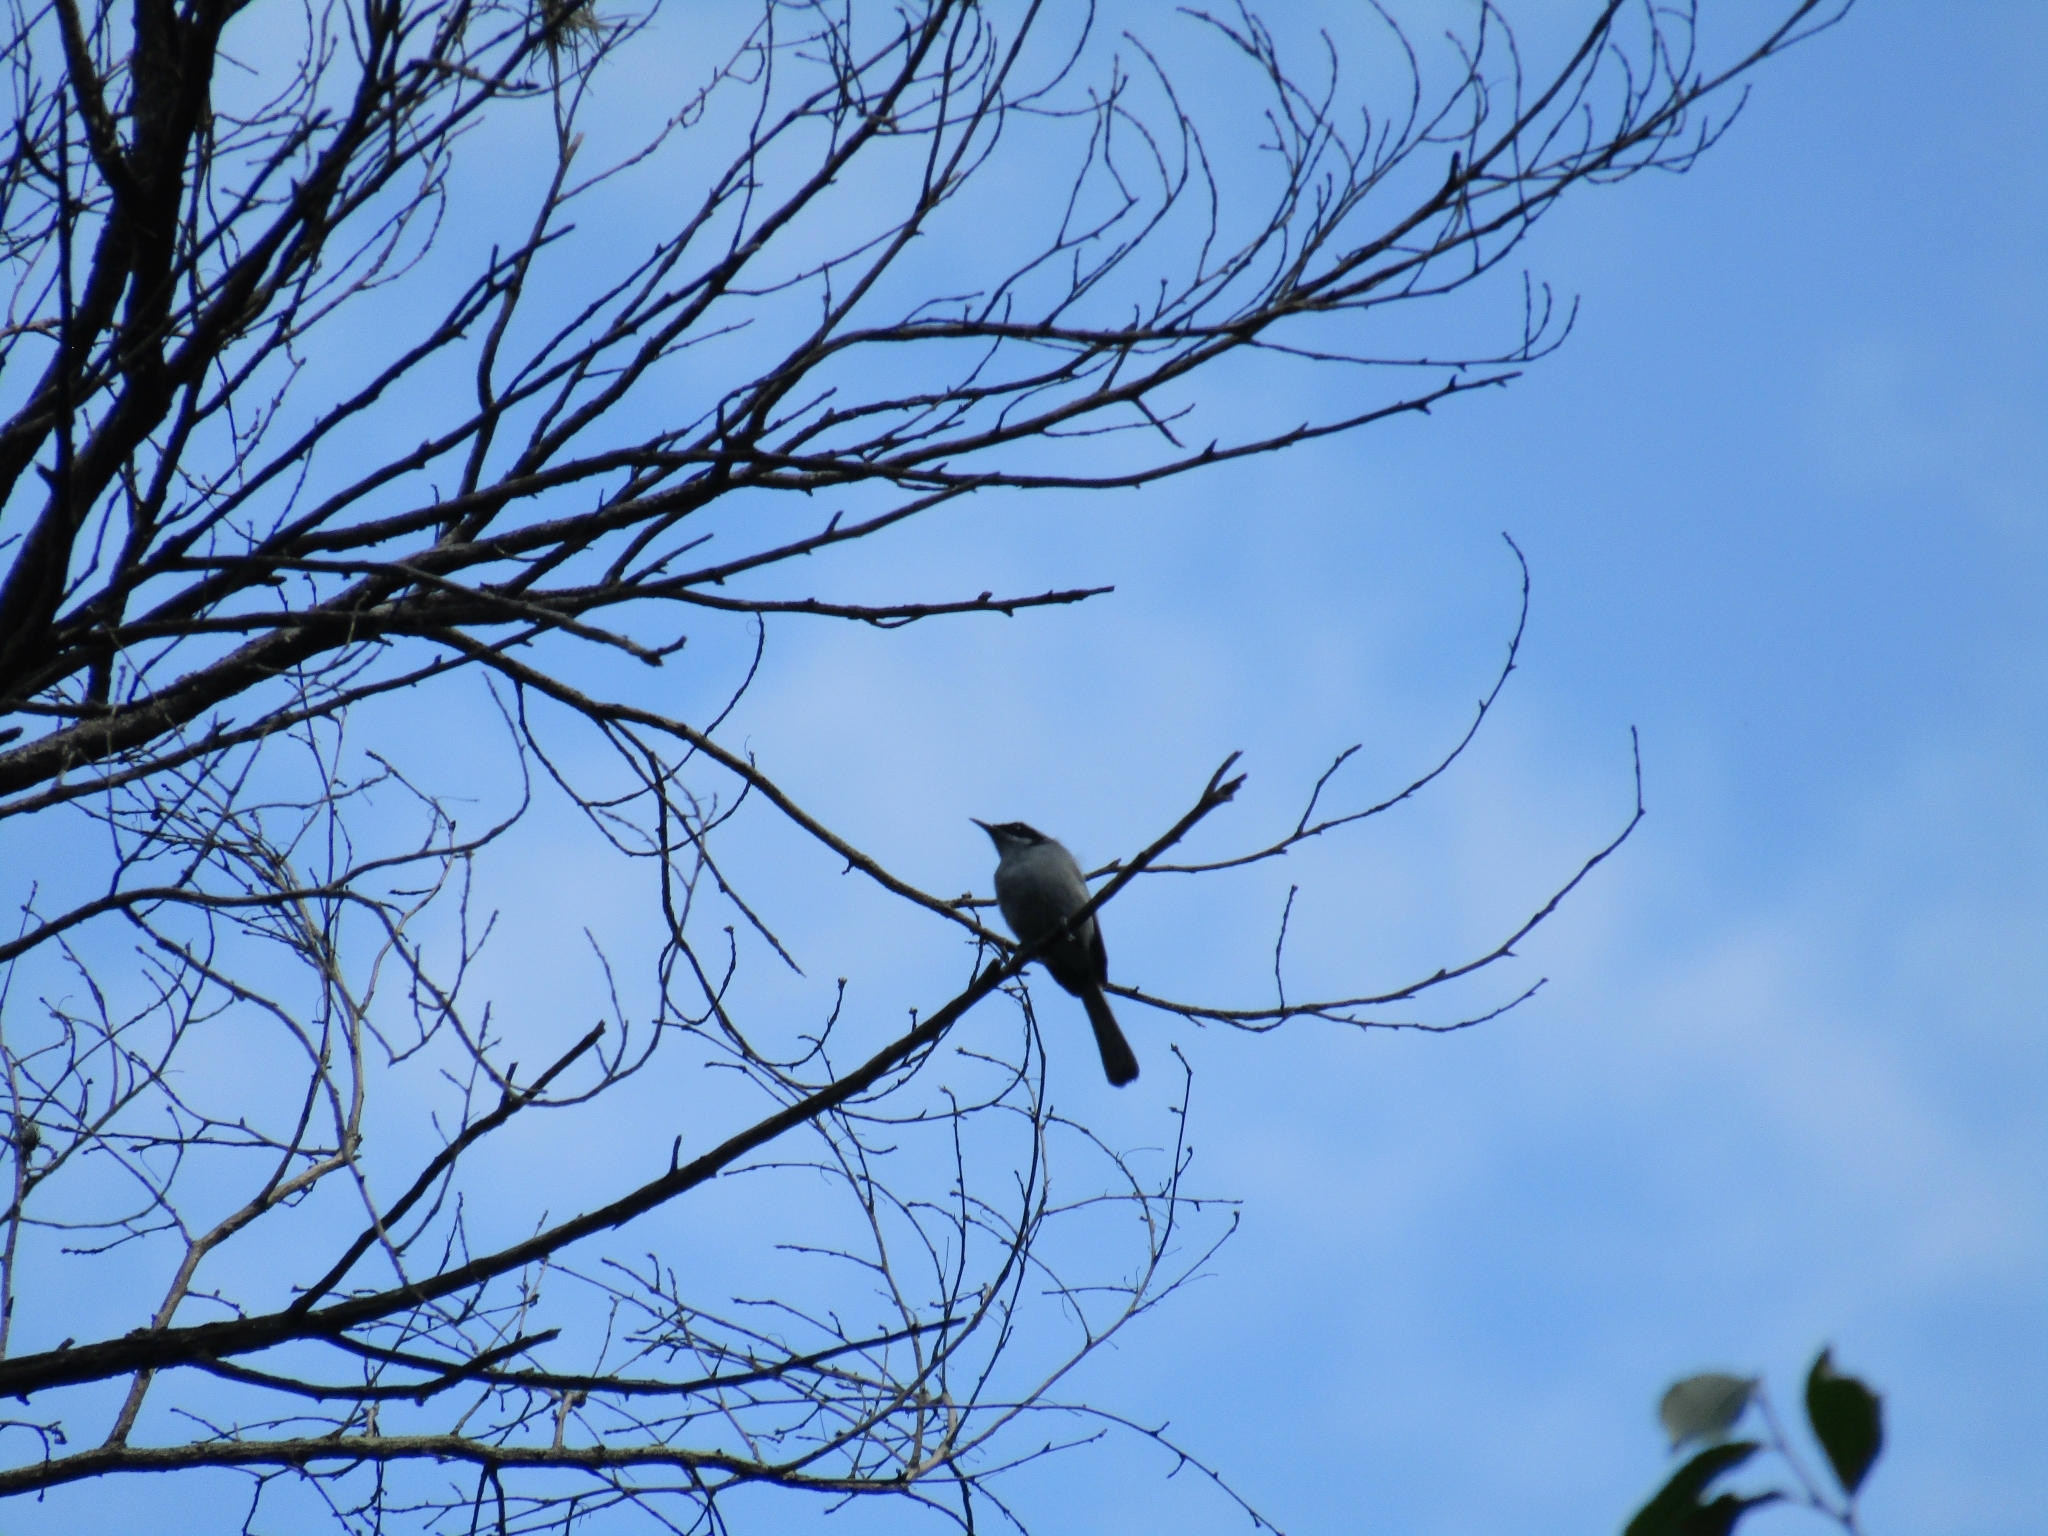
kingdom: Animalia
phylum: Chordata
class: Aves
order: Passeriformes
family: Polioptilidae
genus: Polioptila
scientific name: Polioptila dumicola
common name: Masked gnatcatcher
